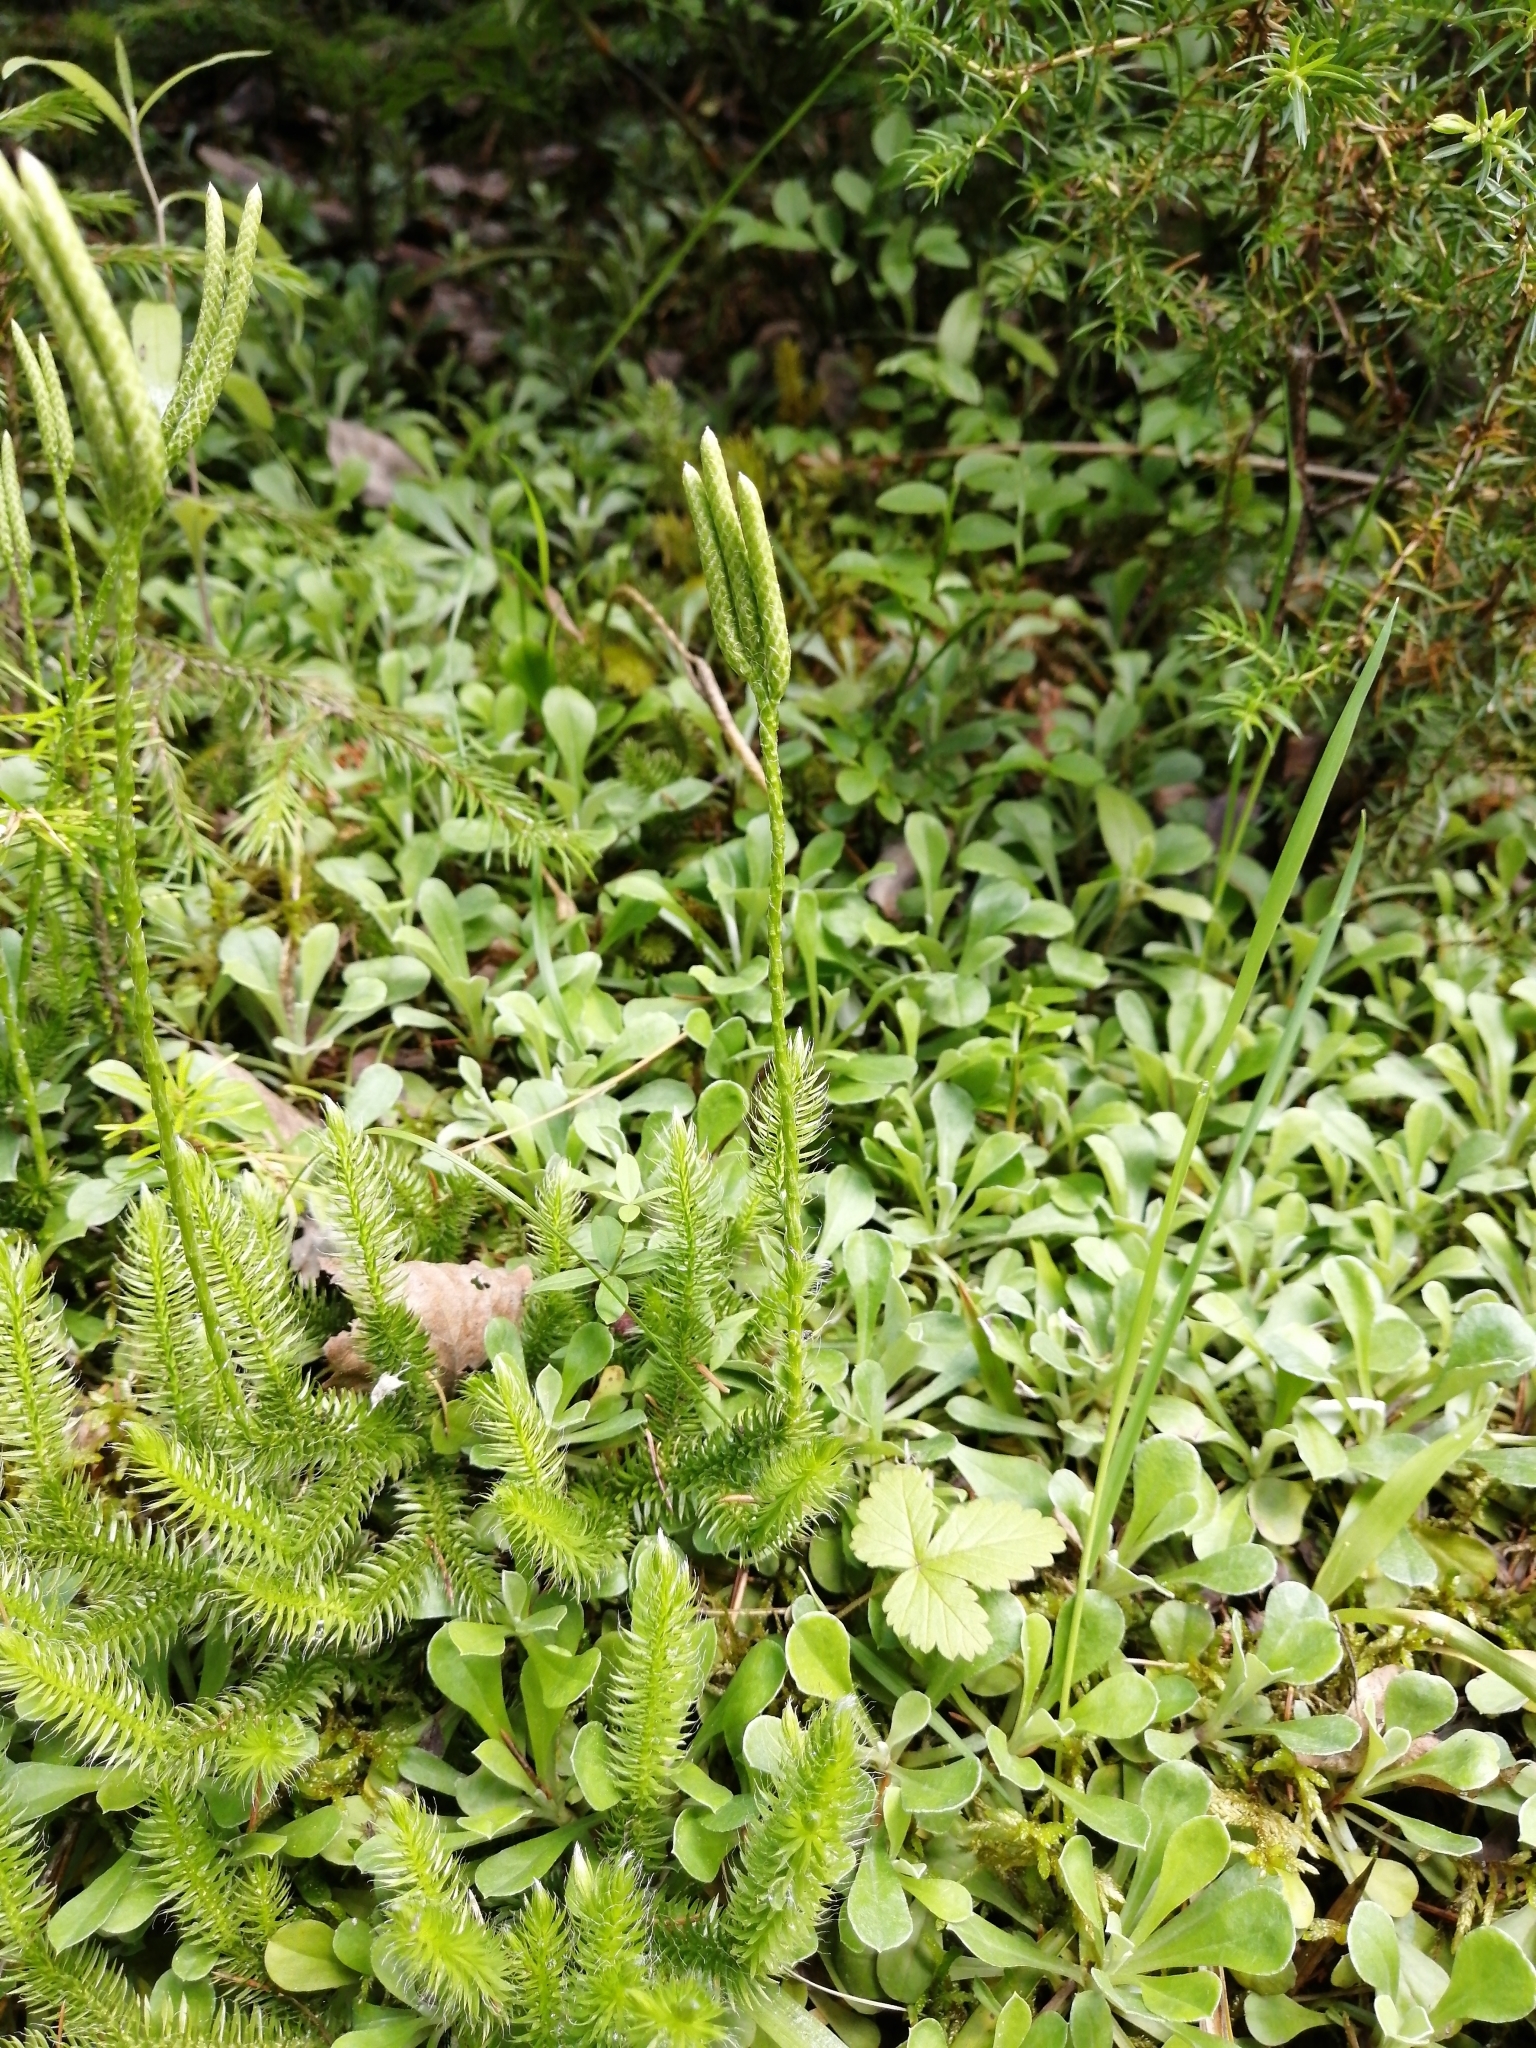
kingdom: Plantae
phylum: Tracheophyta
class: Lycopodiopsida
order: Lycopodiales
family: Lycopodiaceae
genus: Lycopodium
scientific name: Lycopodium clavatum
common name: Stag's-horn clubmoss
